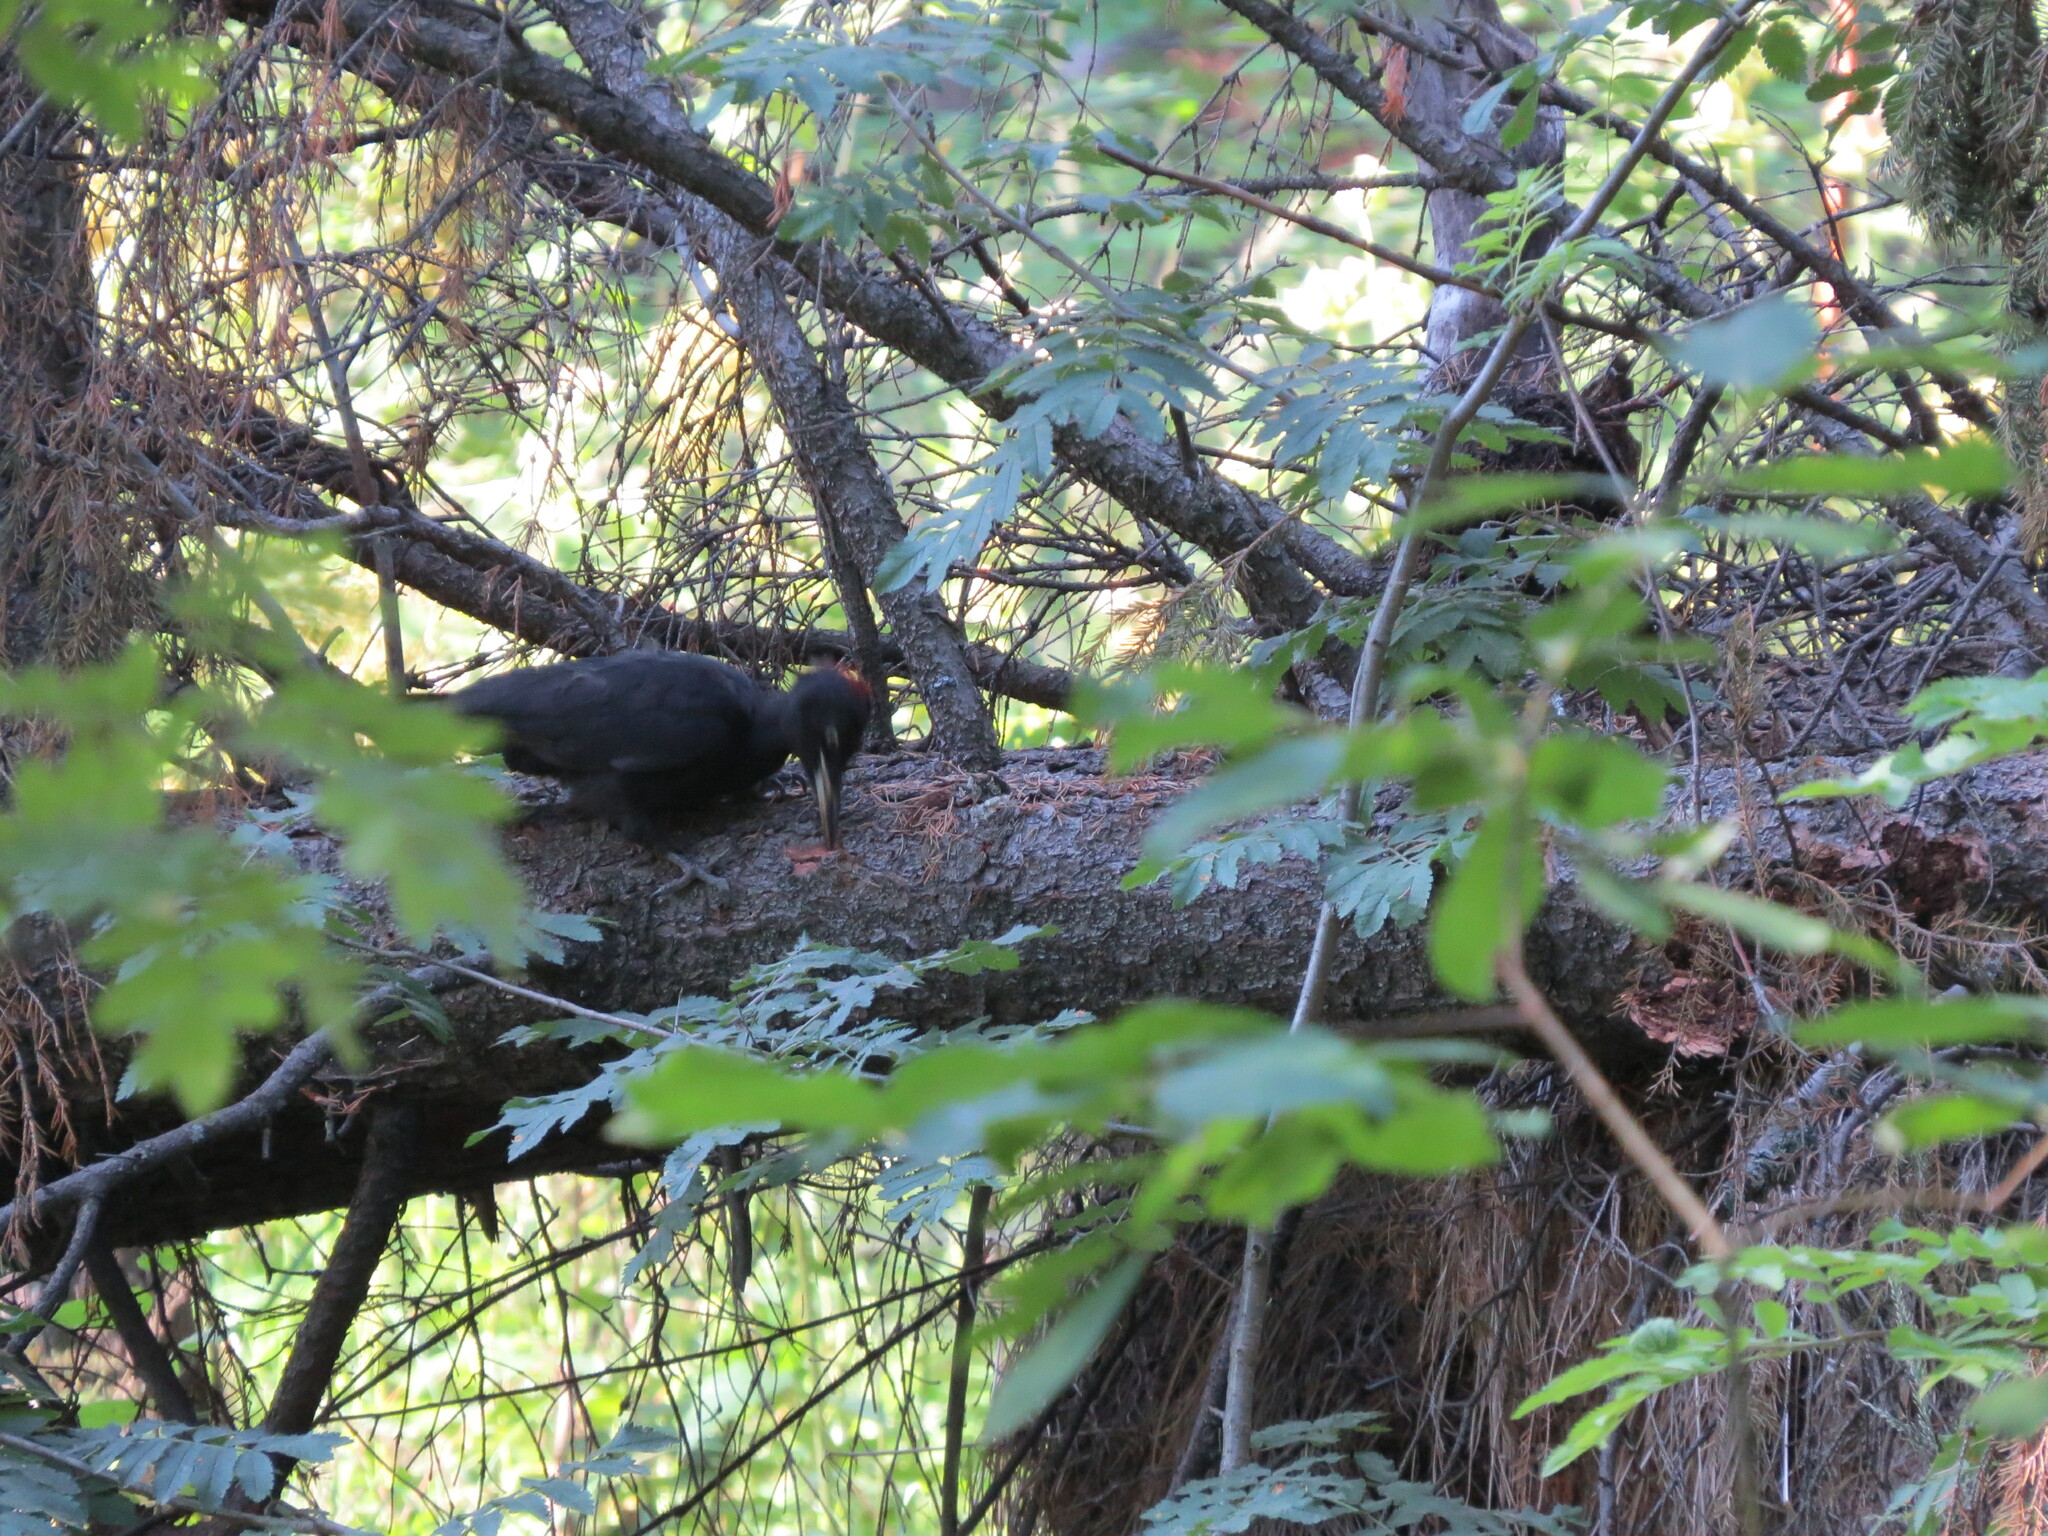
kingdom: Animalia
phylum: Chordata
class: Aves
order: Piciformes
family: Picidae
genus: Dryocopus
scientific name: Dryocopus martius
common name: Black woodpecker
